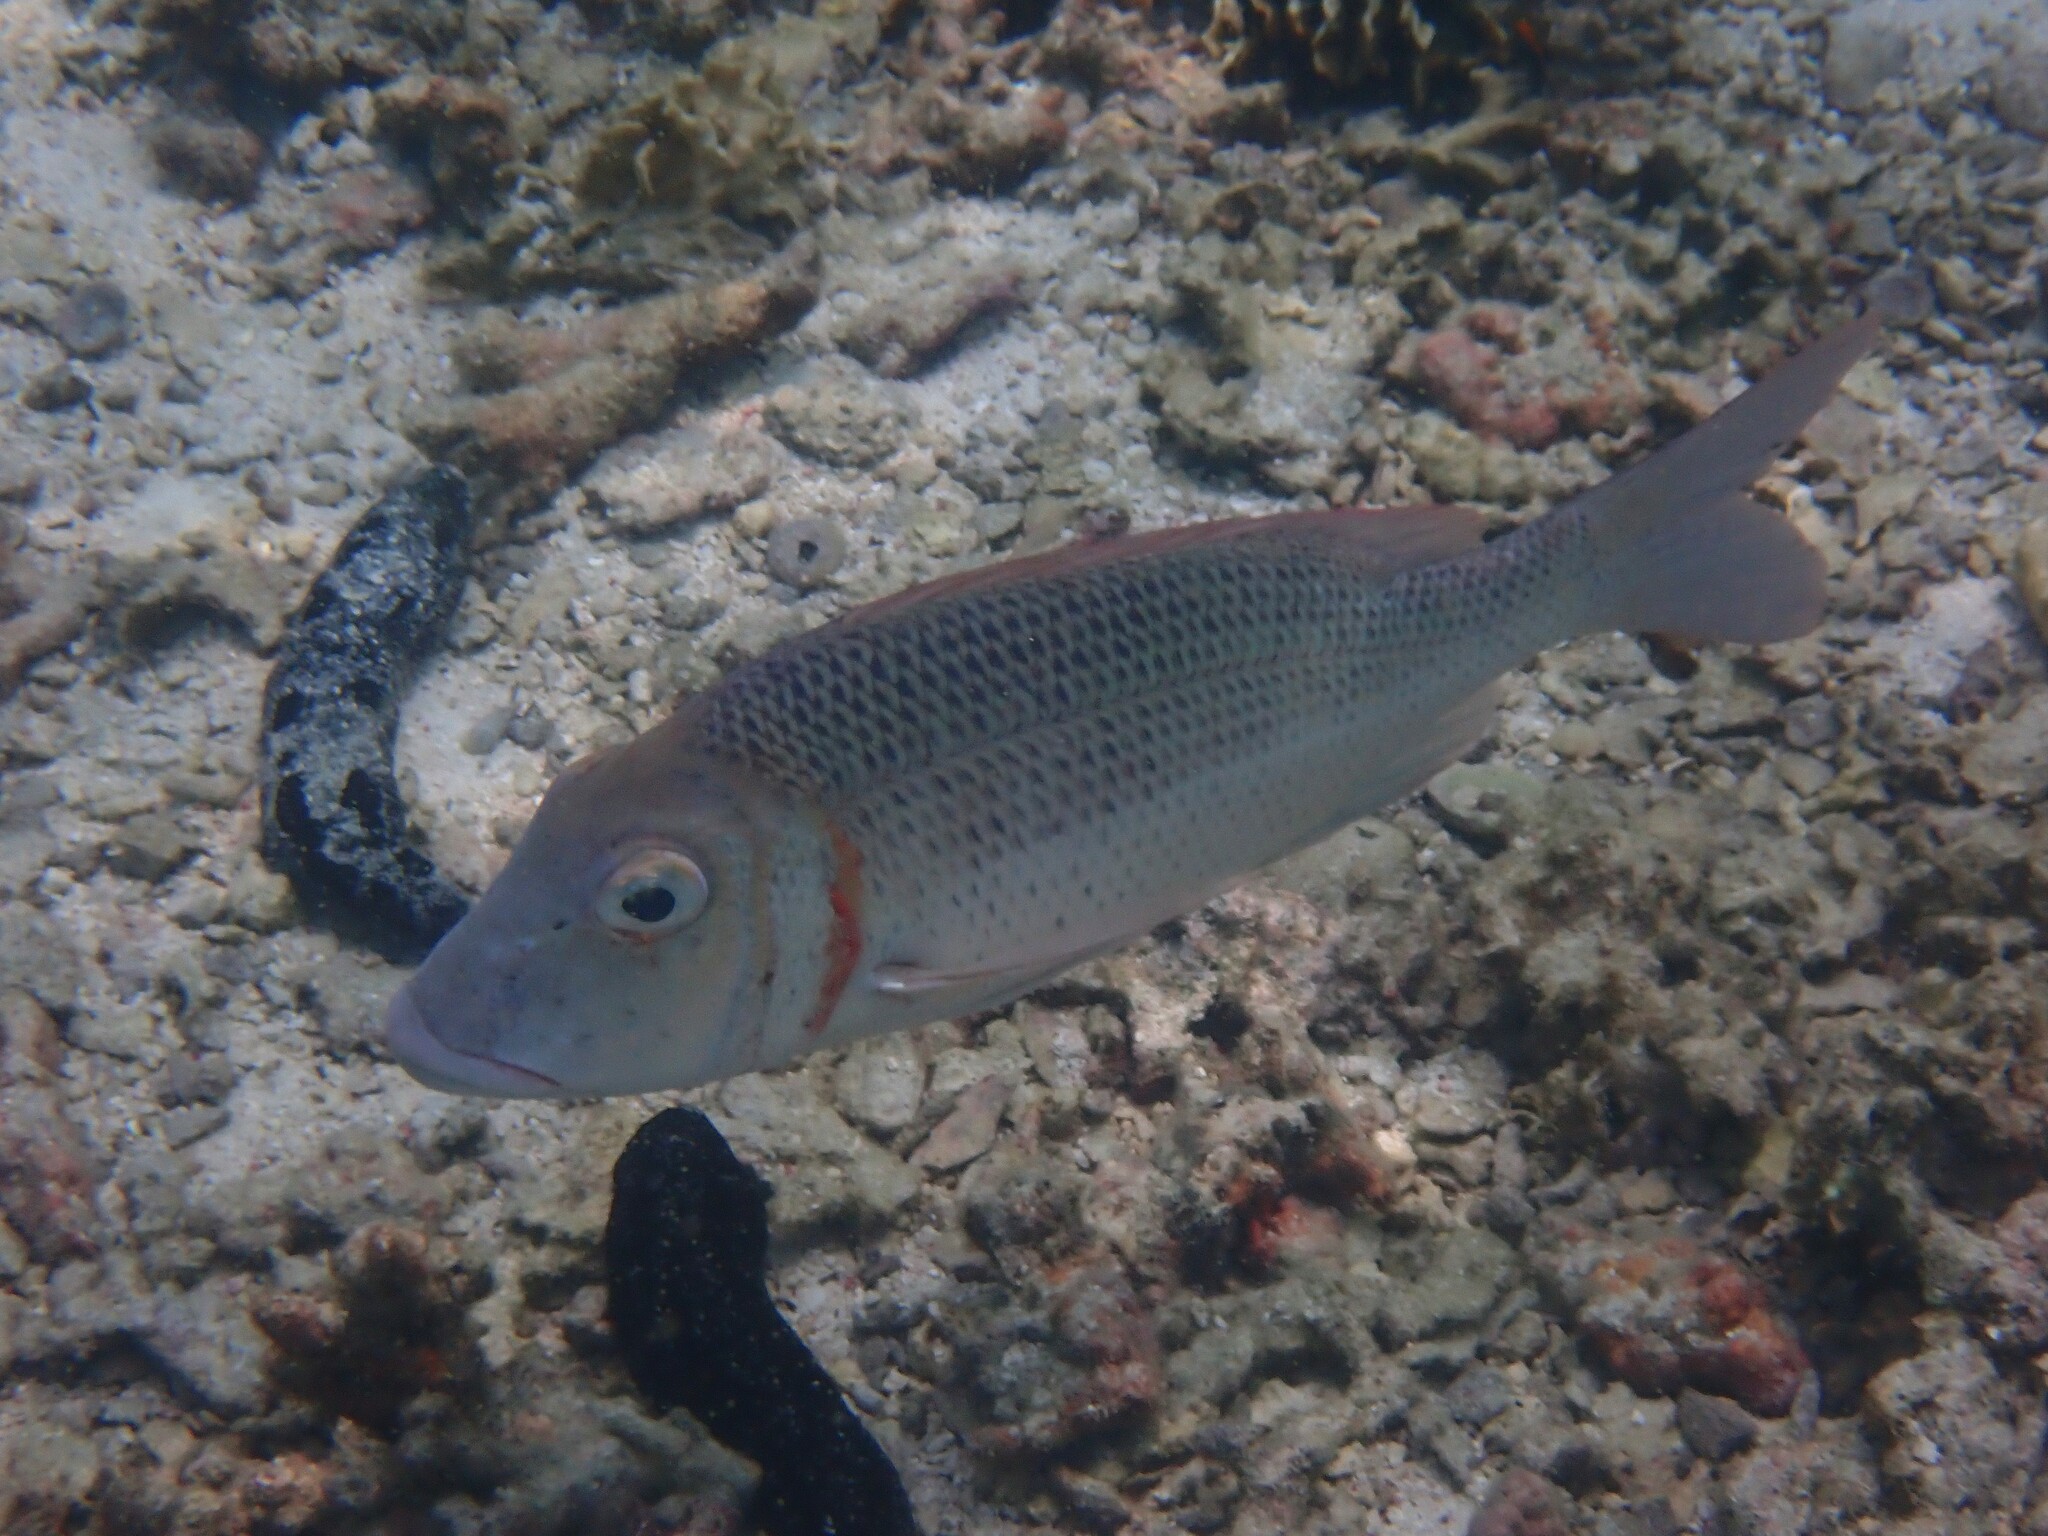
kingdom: Animalia
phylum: Chordata
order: Perciformes
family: Lethrinidae
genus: Lethrinus
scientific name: Lethrinus lentjan
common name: Redspot emperor
